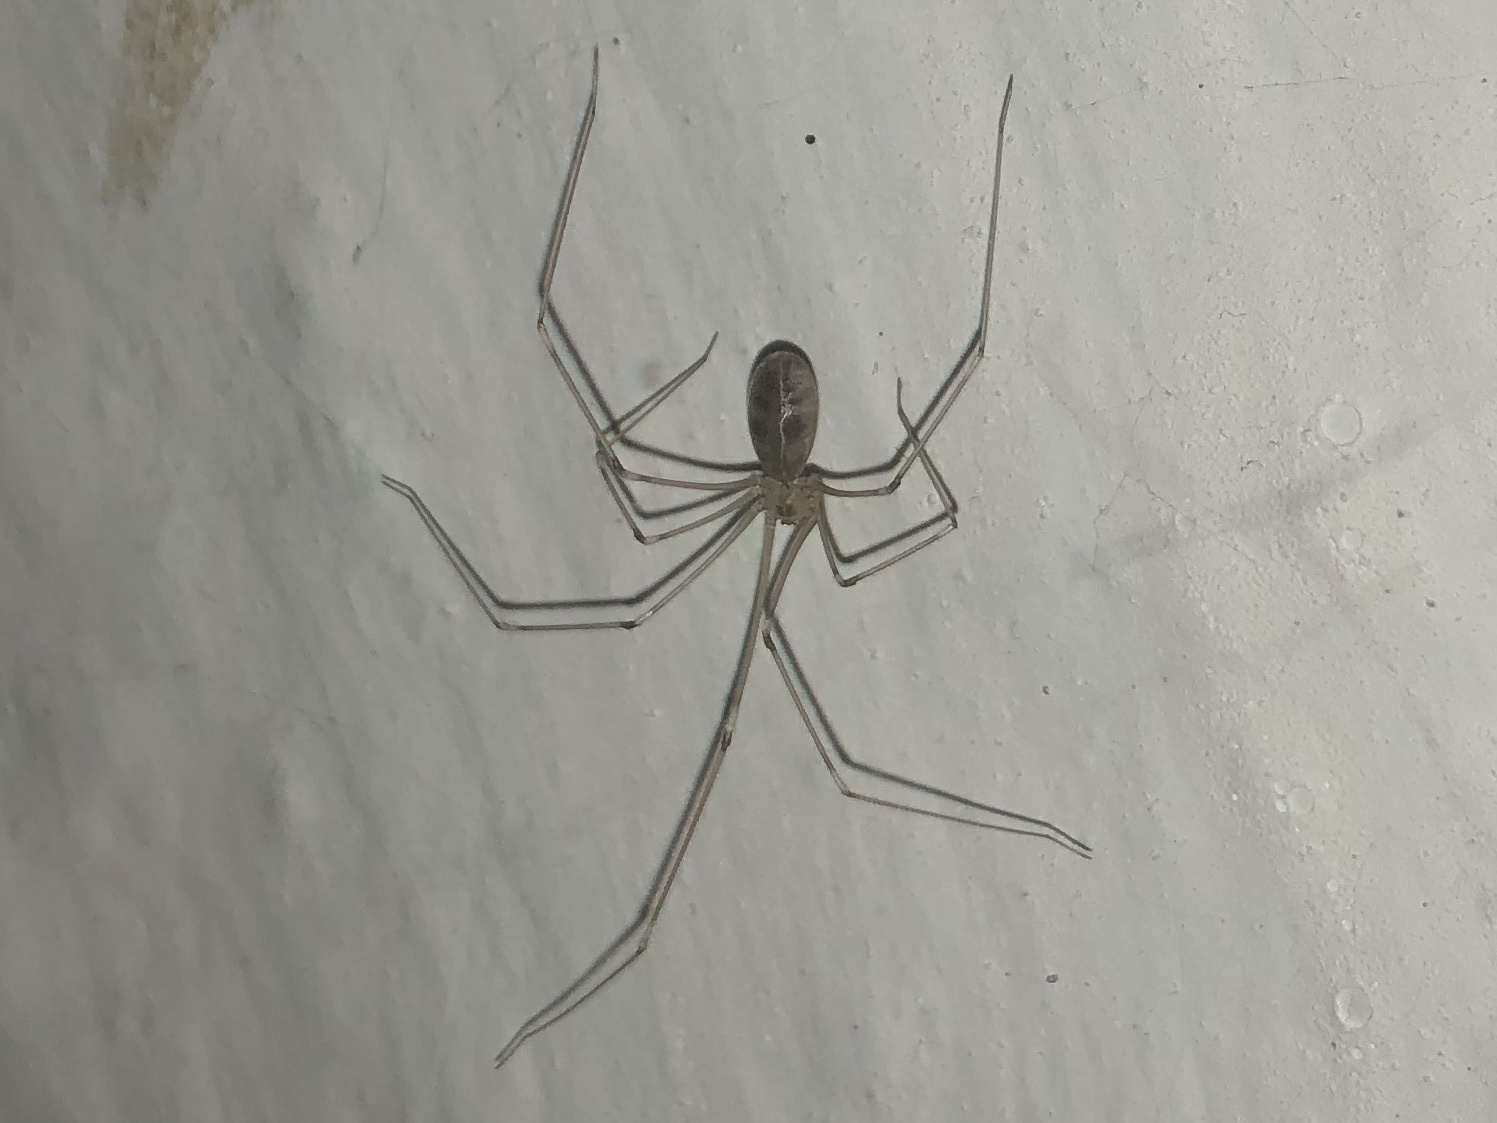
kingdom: Animalia
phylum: Arthropoda
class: Arachnida
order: Araneae
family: Pholcidae
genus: Pholcus
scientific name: Pholcus phalangioides
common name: Longbodied cellar spider
